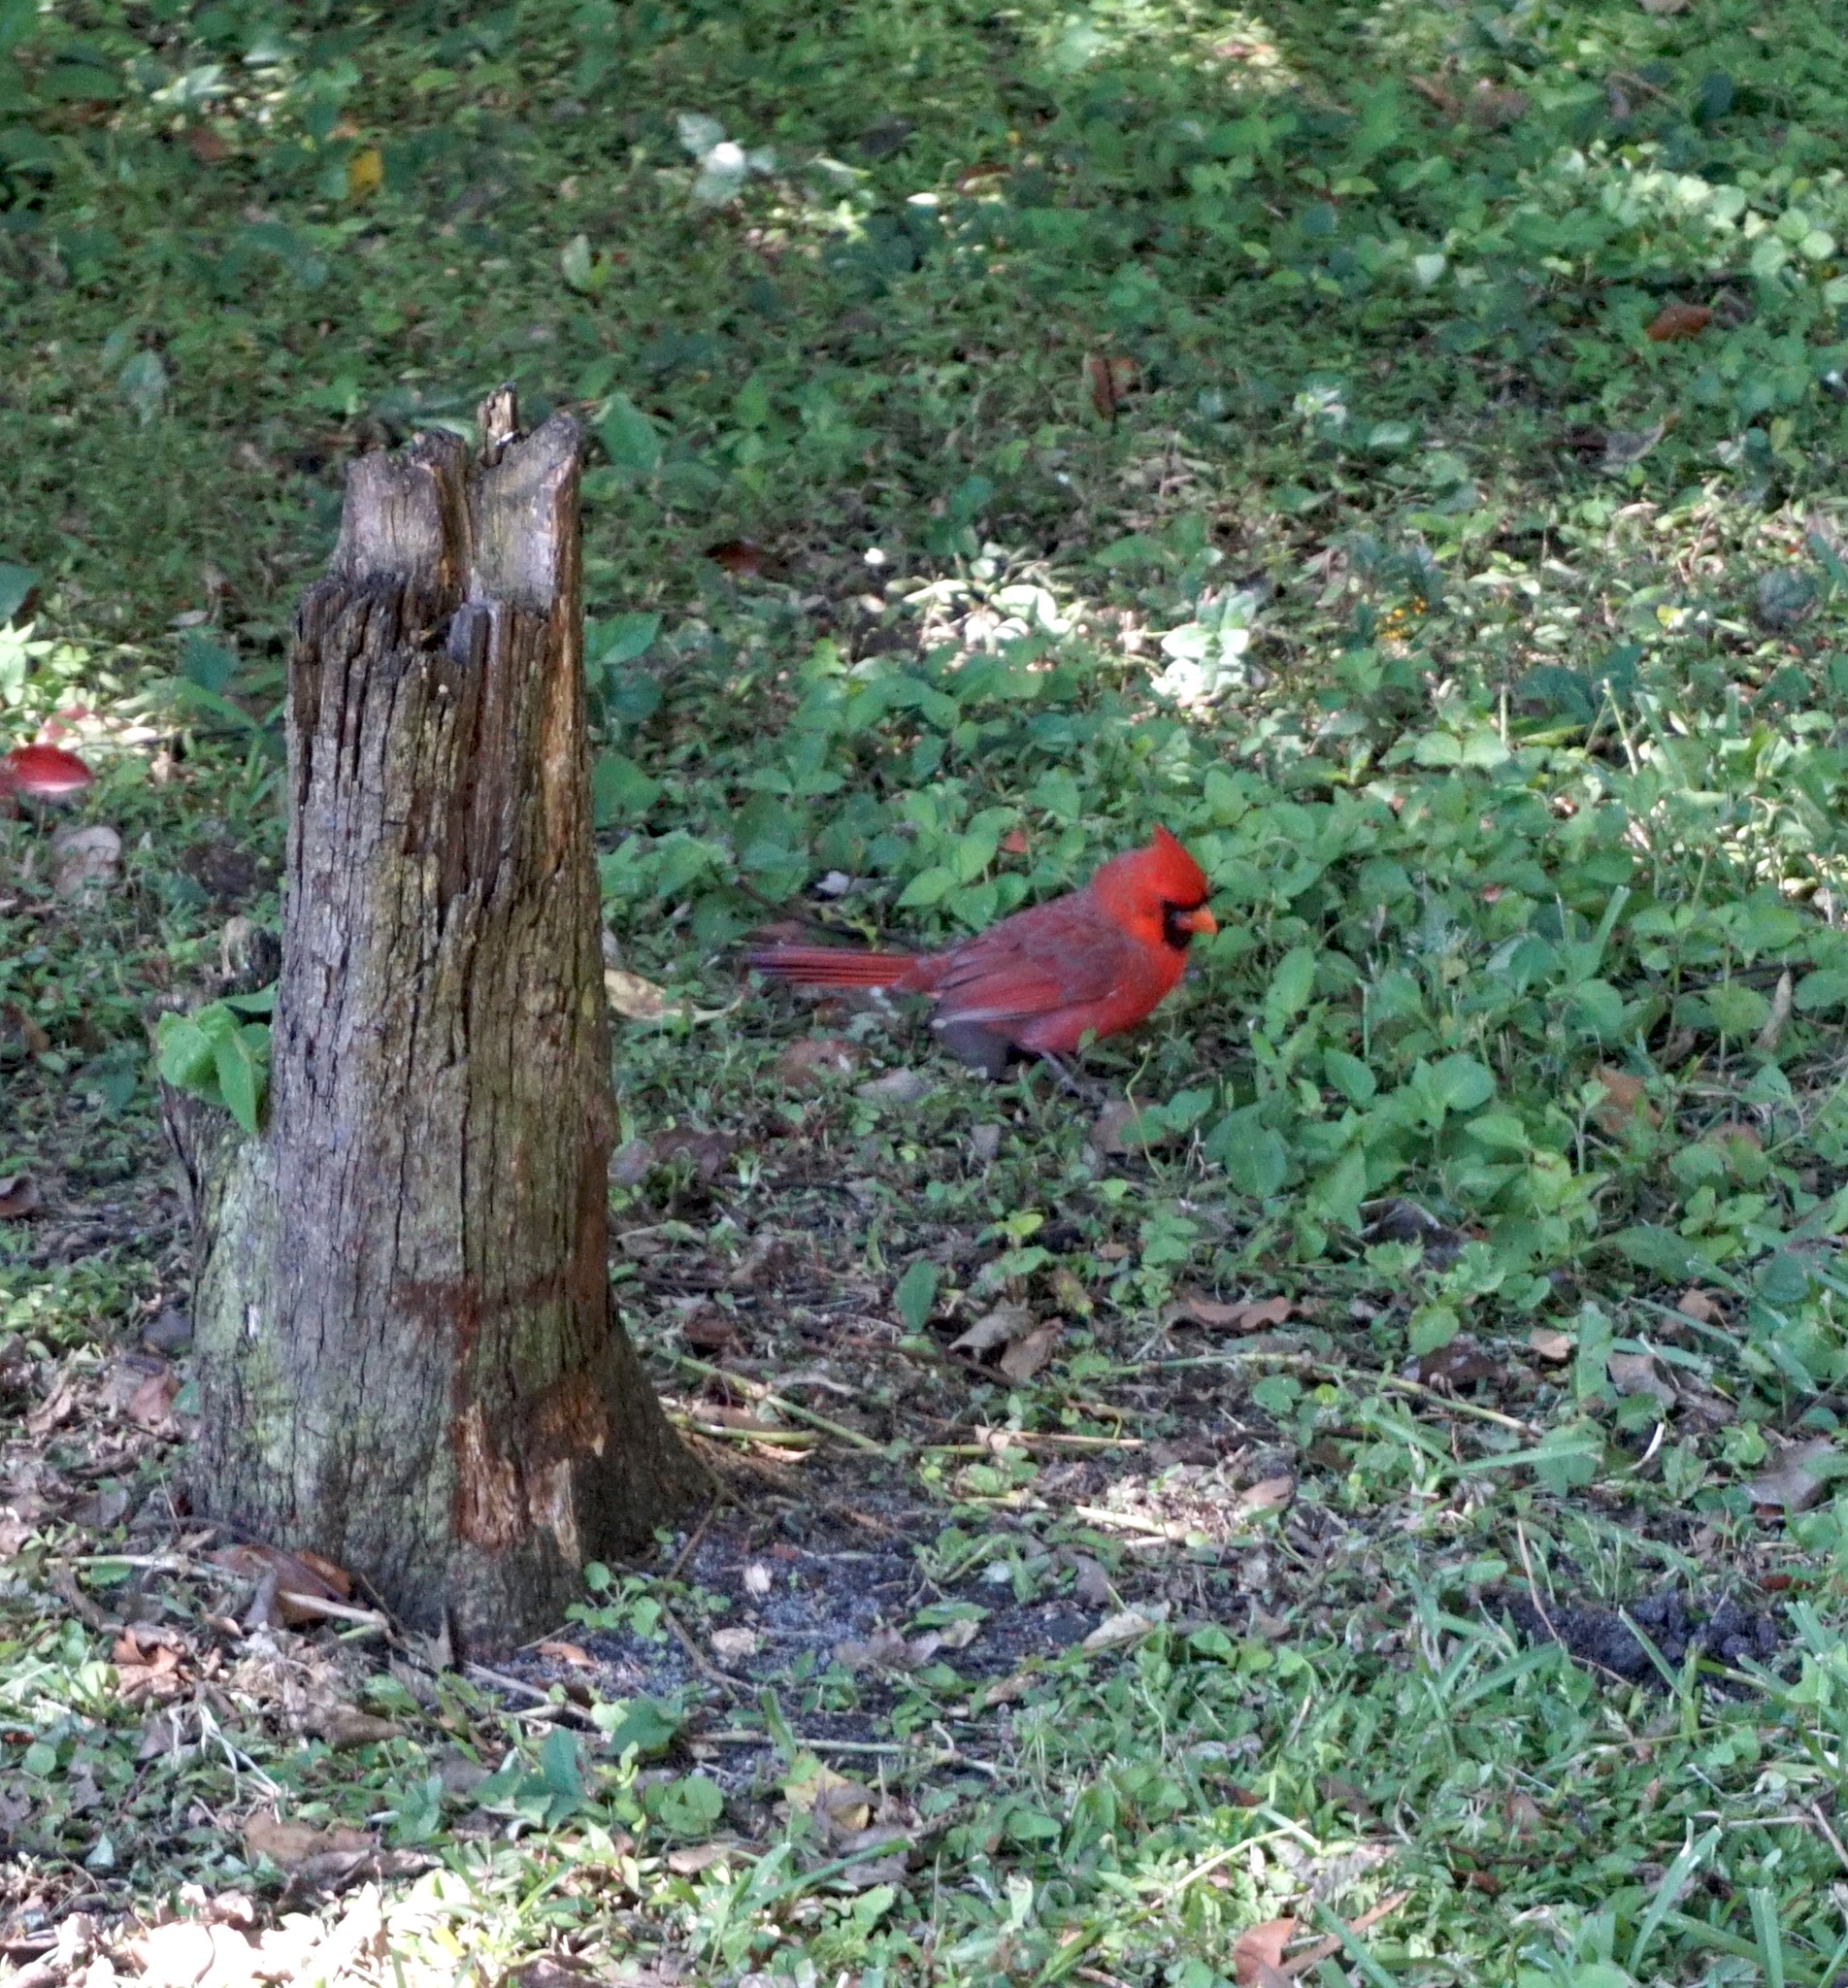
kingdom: Animalia
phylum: Chordata
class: Aves
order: Passeriformes
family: Cardinalidae
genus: Cardinalis
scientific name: Cardinalis cardinalis
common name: Northern cardinal
